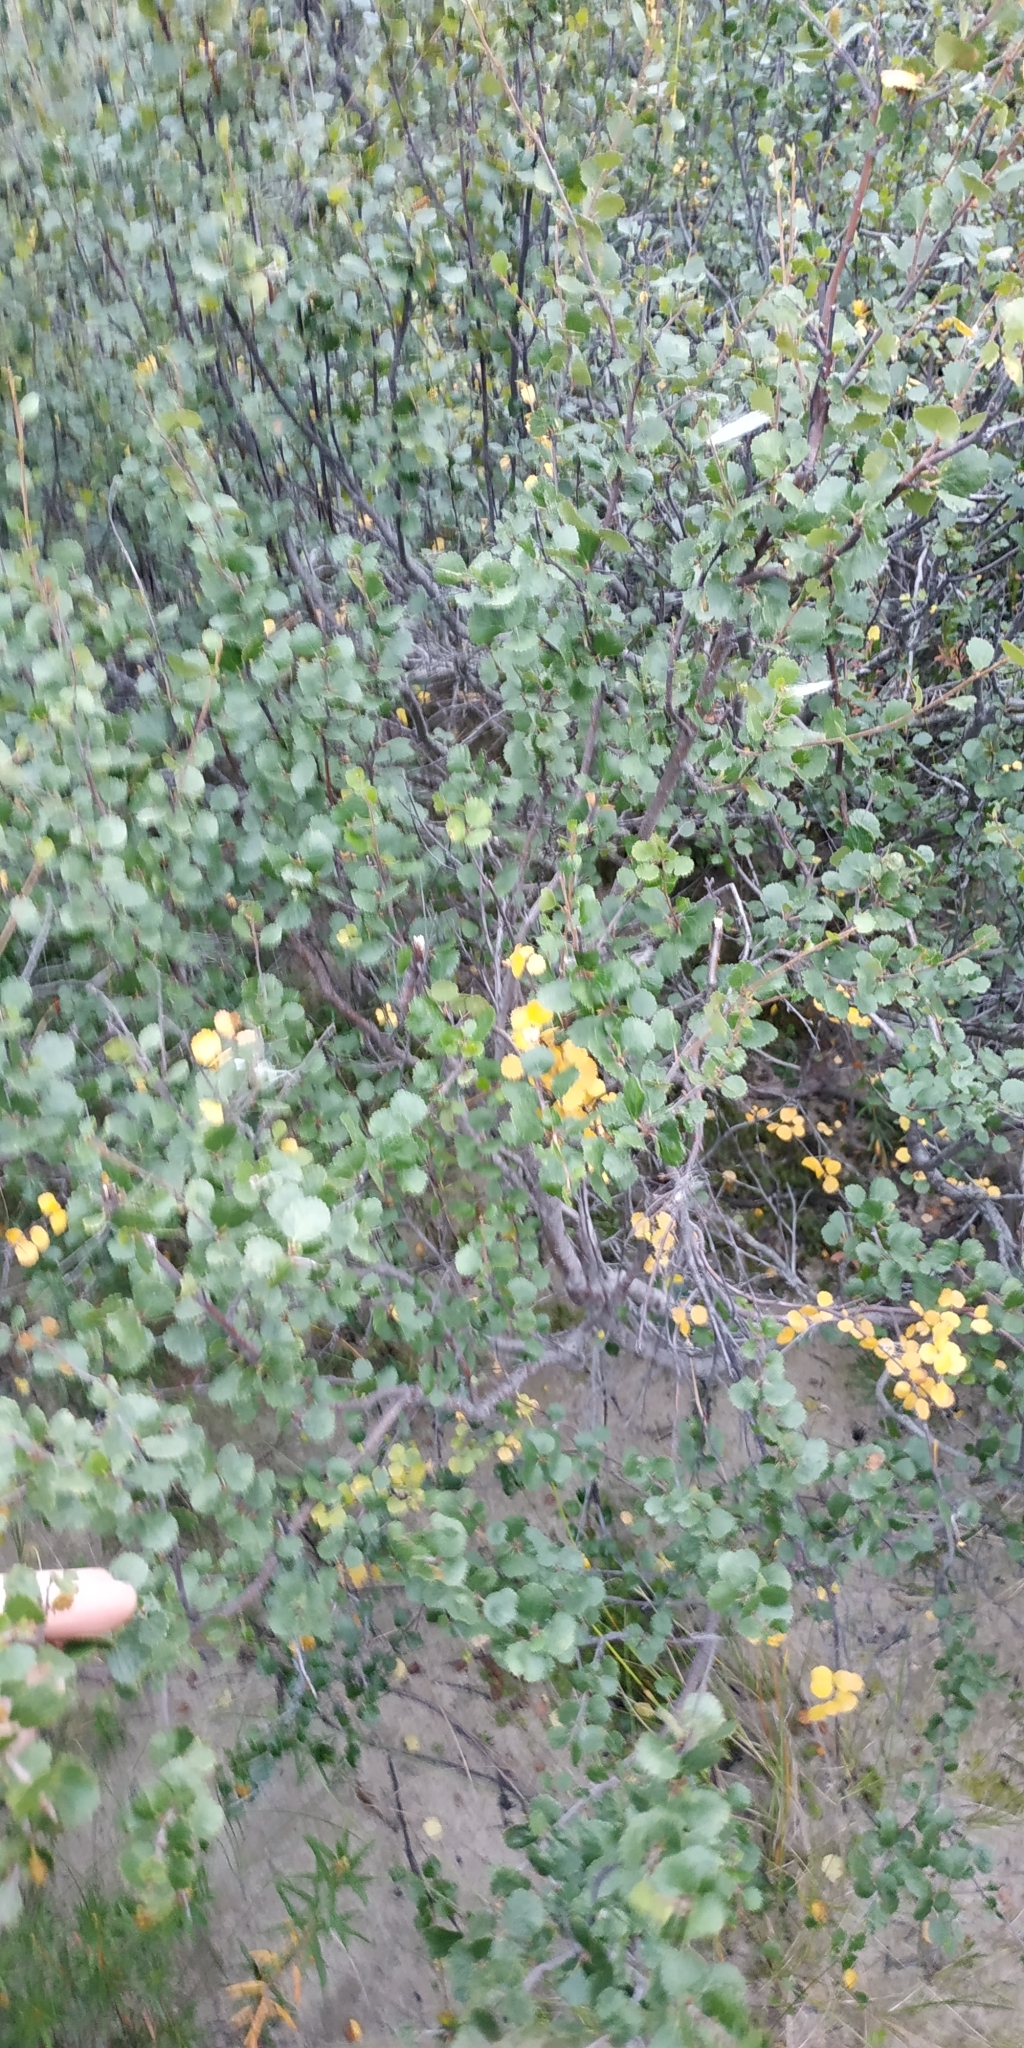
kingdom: Plantae
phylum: Tracheophyta
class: Magnoliopsida
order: Fagales
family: Betulaceae
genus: Betula
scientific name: Betula nana
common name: Arctic dwarf birch
